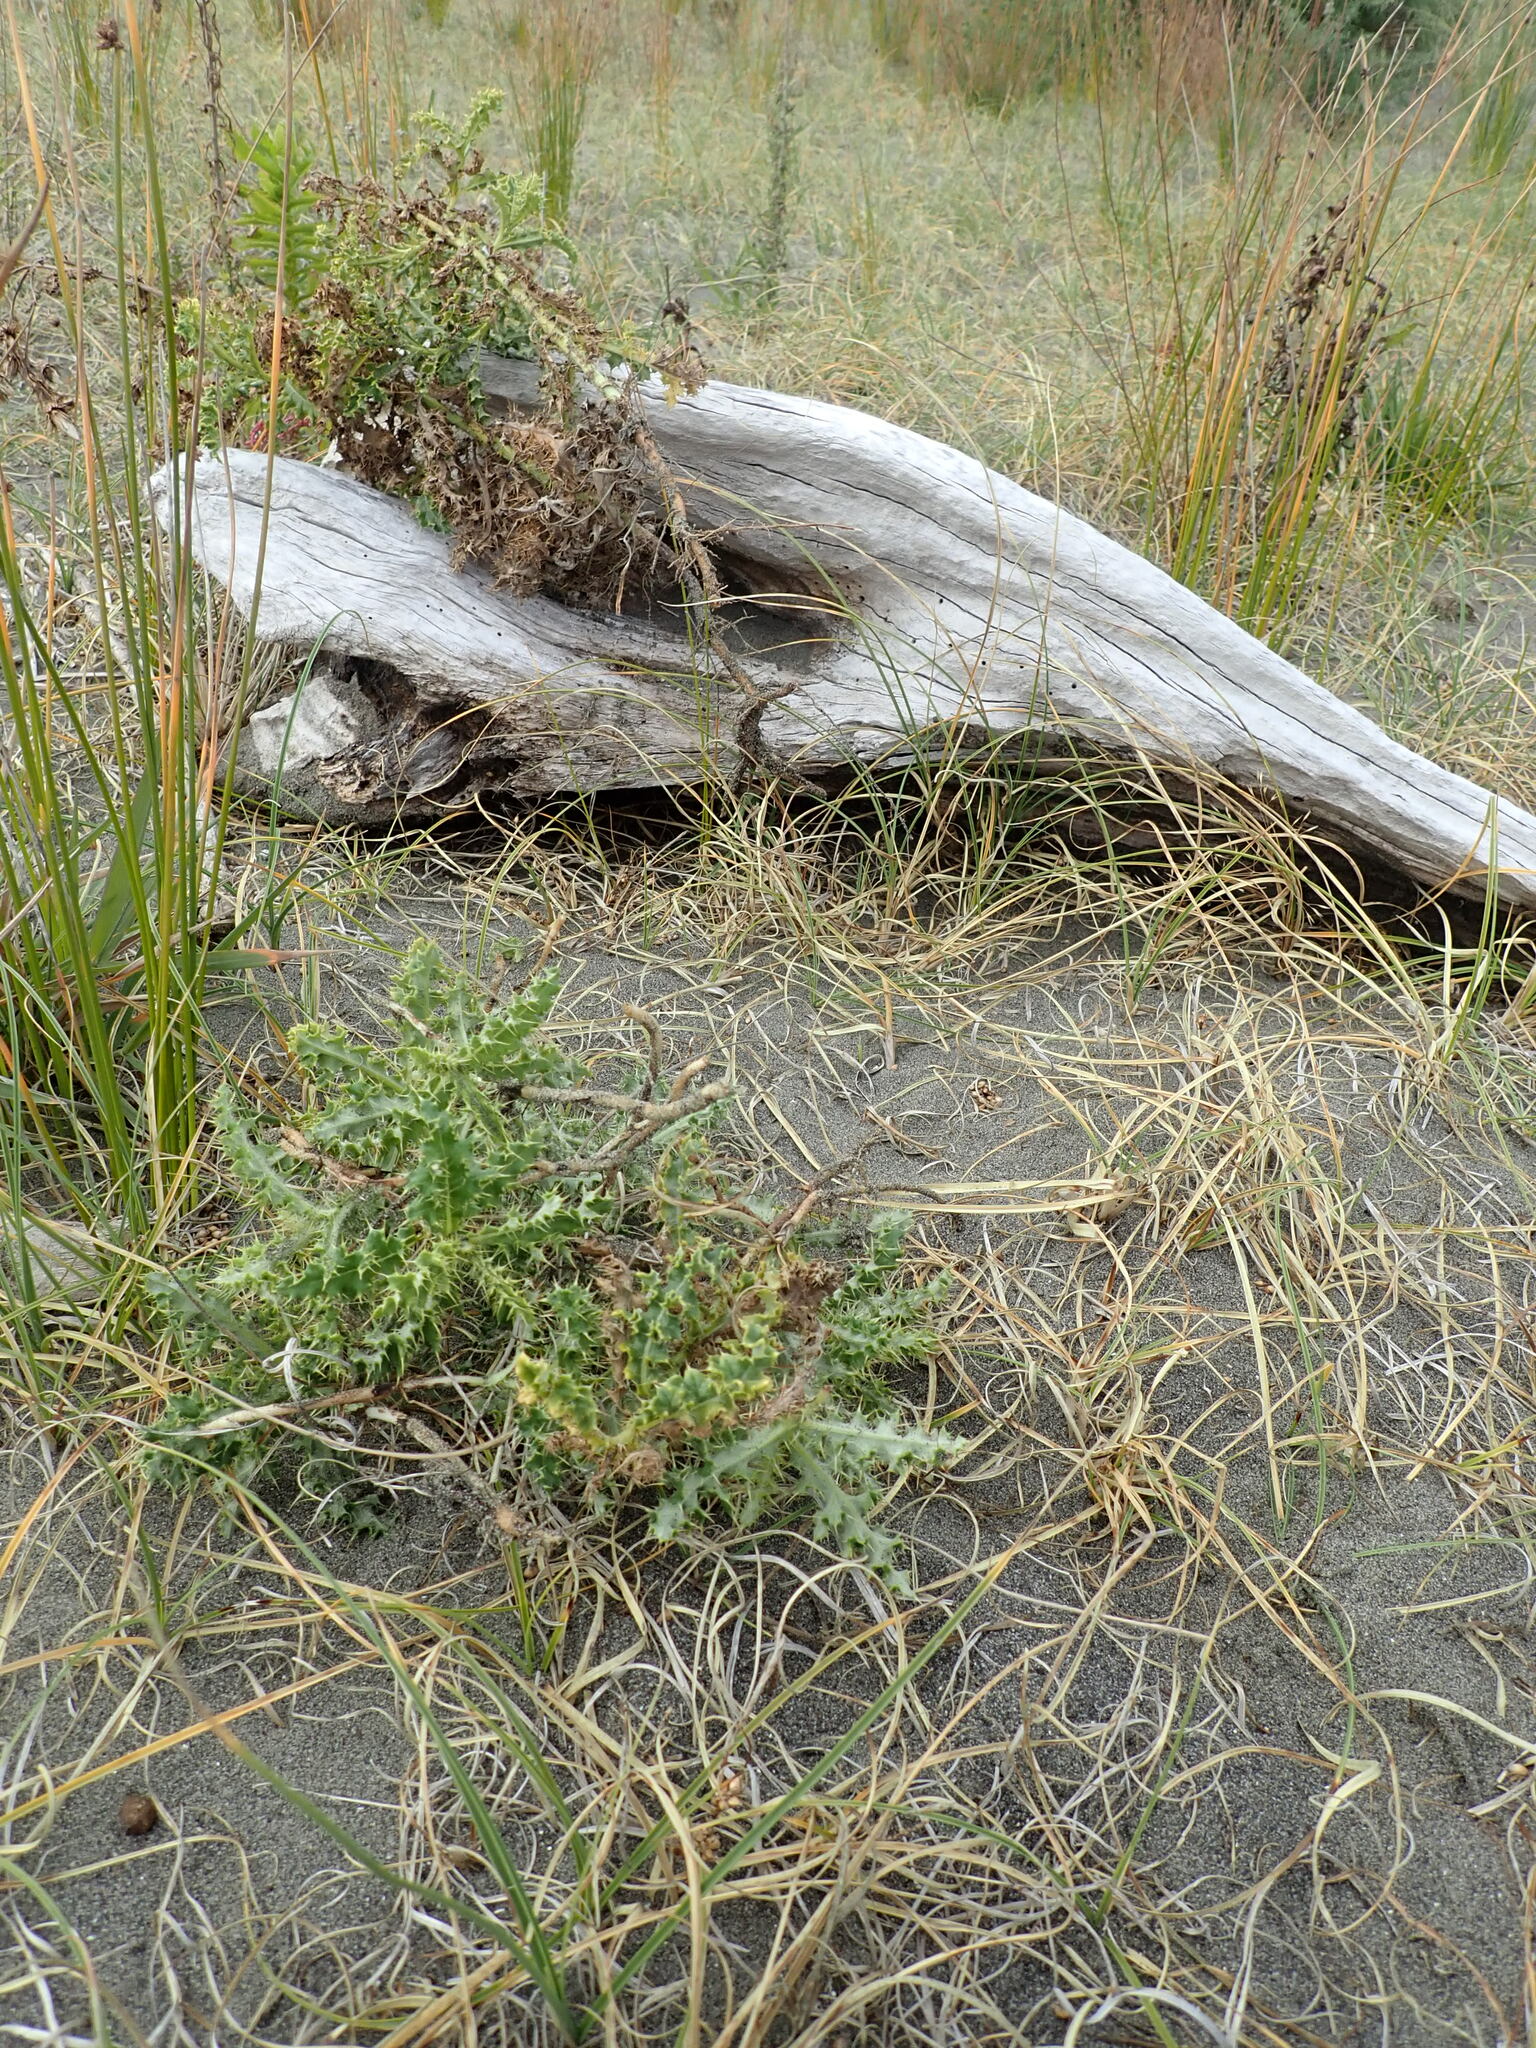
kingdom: Plantae
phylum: Tracheophyta
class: Magnoliopsida
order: Asterales
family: Asteraceae
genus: Cirsium
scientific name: Cirsium arvense
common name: Creeping thistle
